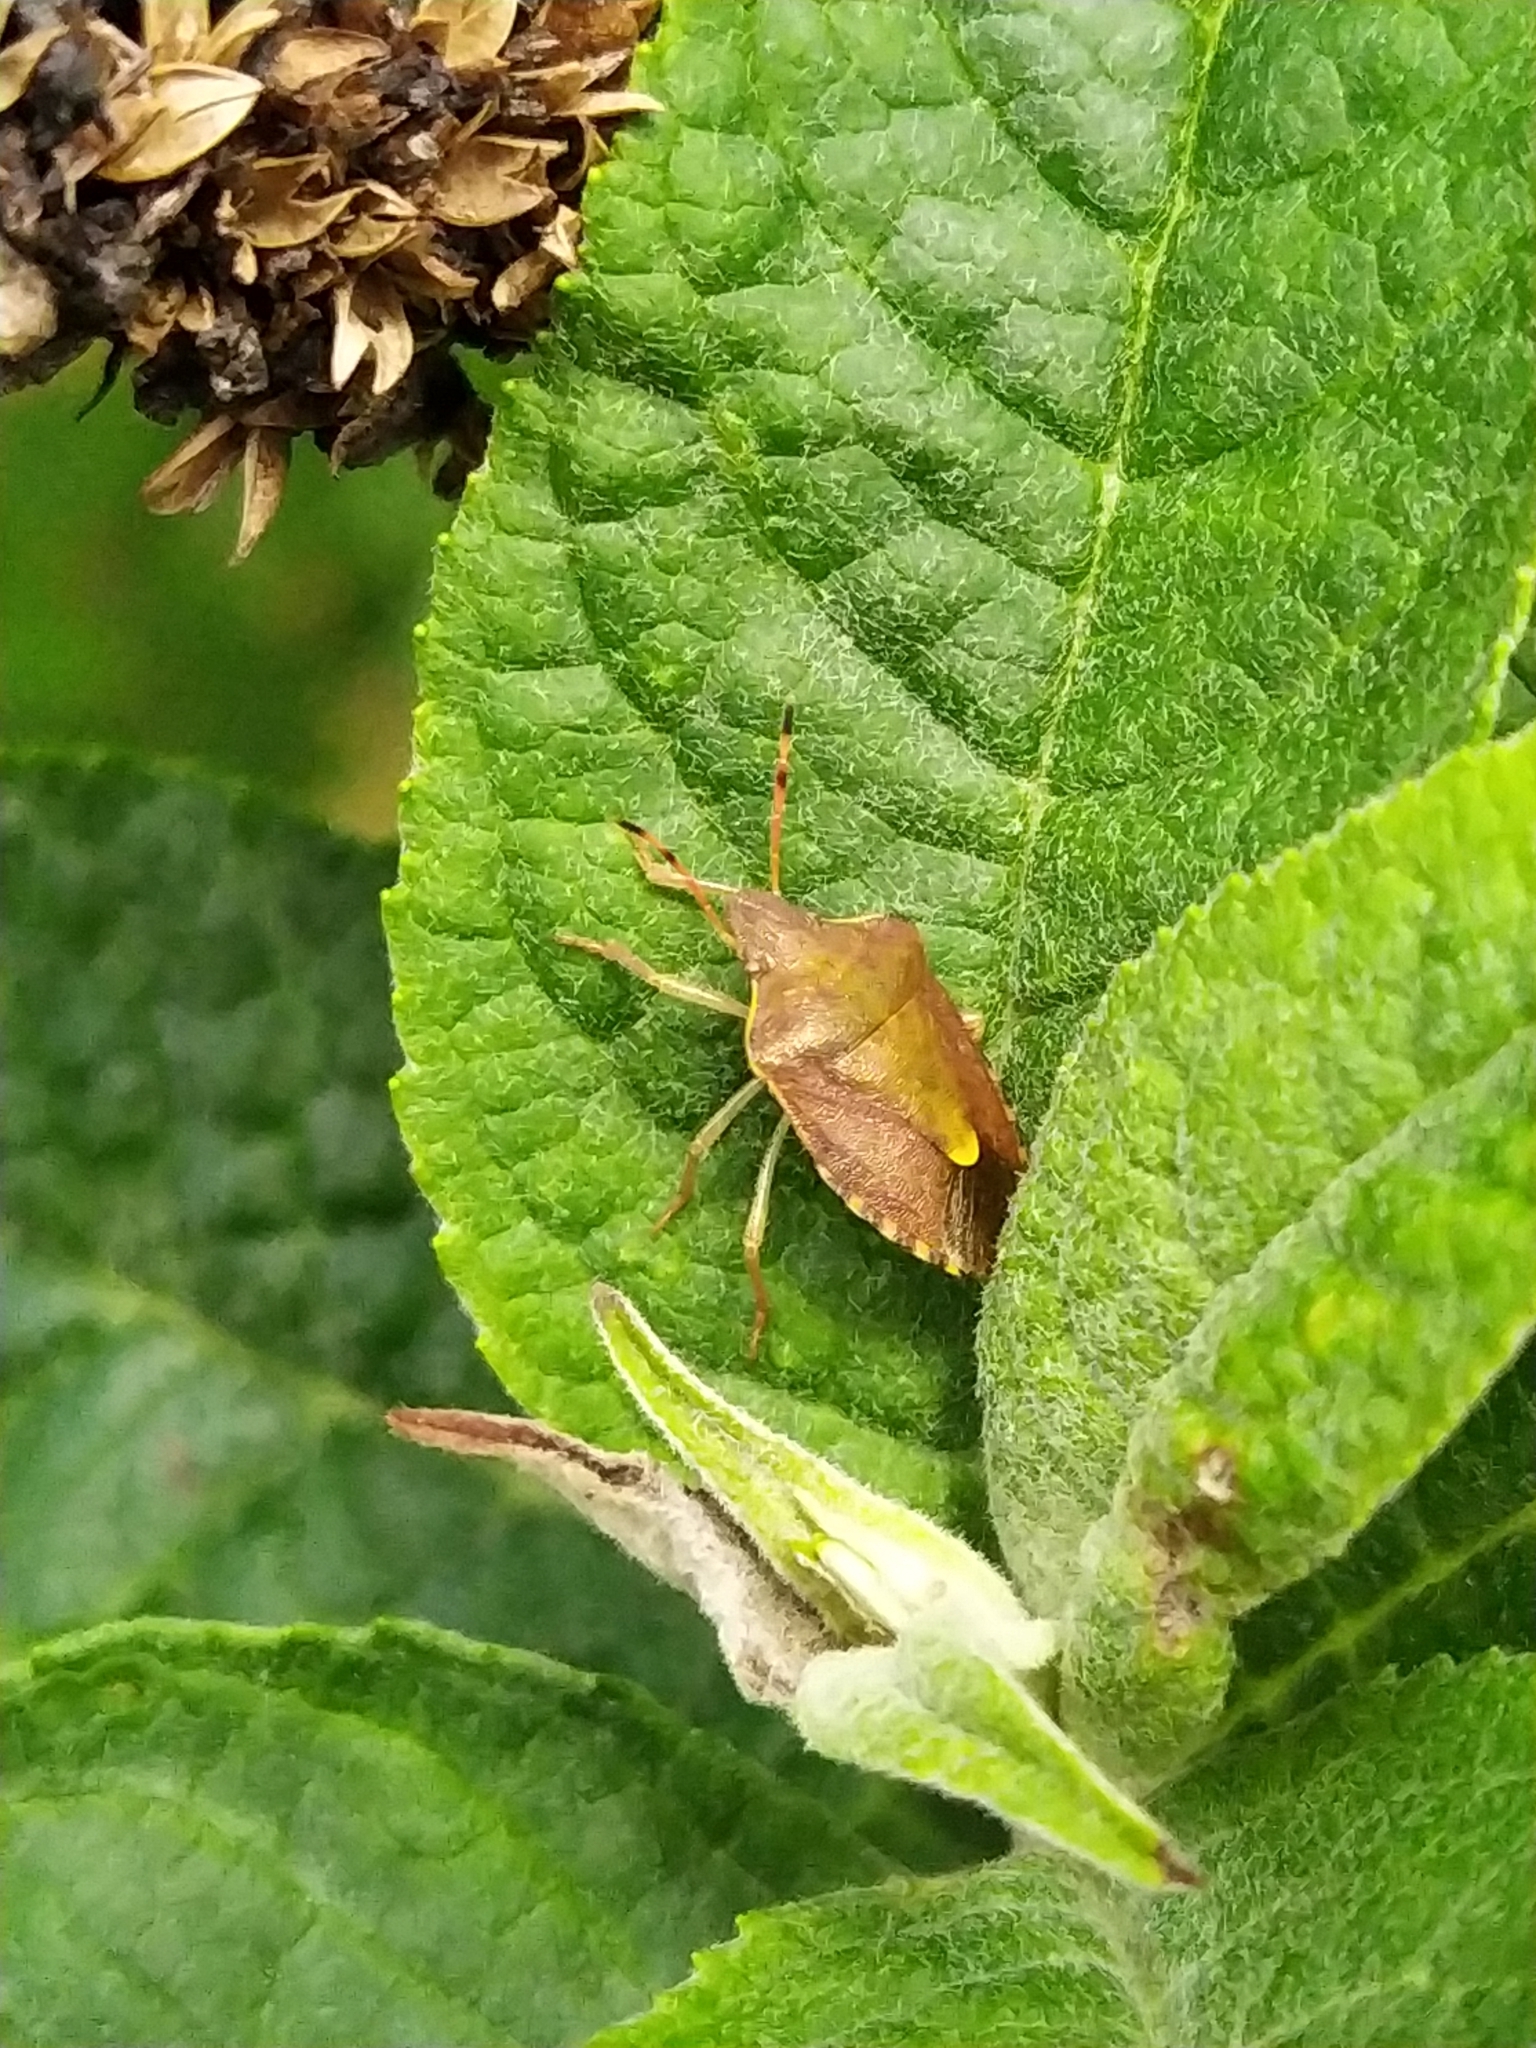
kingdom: Animalia
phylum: Arthropoda
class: Insecta
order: Hemiptera
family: Pentatomidae
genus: Holcostethus
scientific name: Holcostethus strictus
